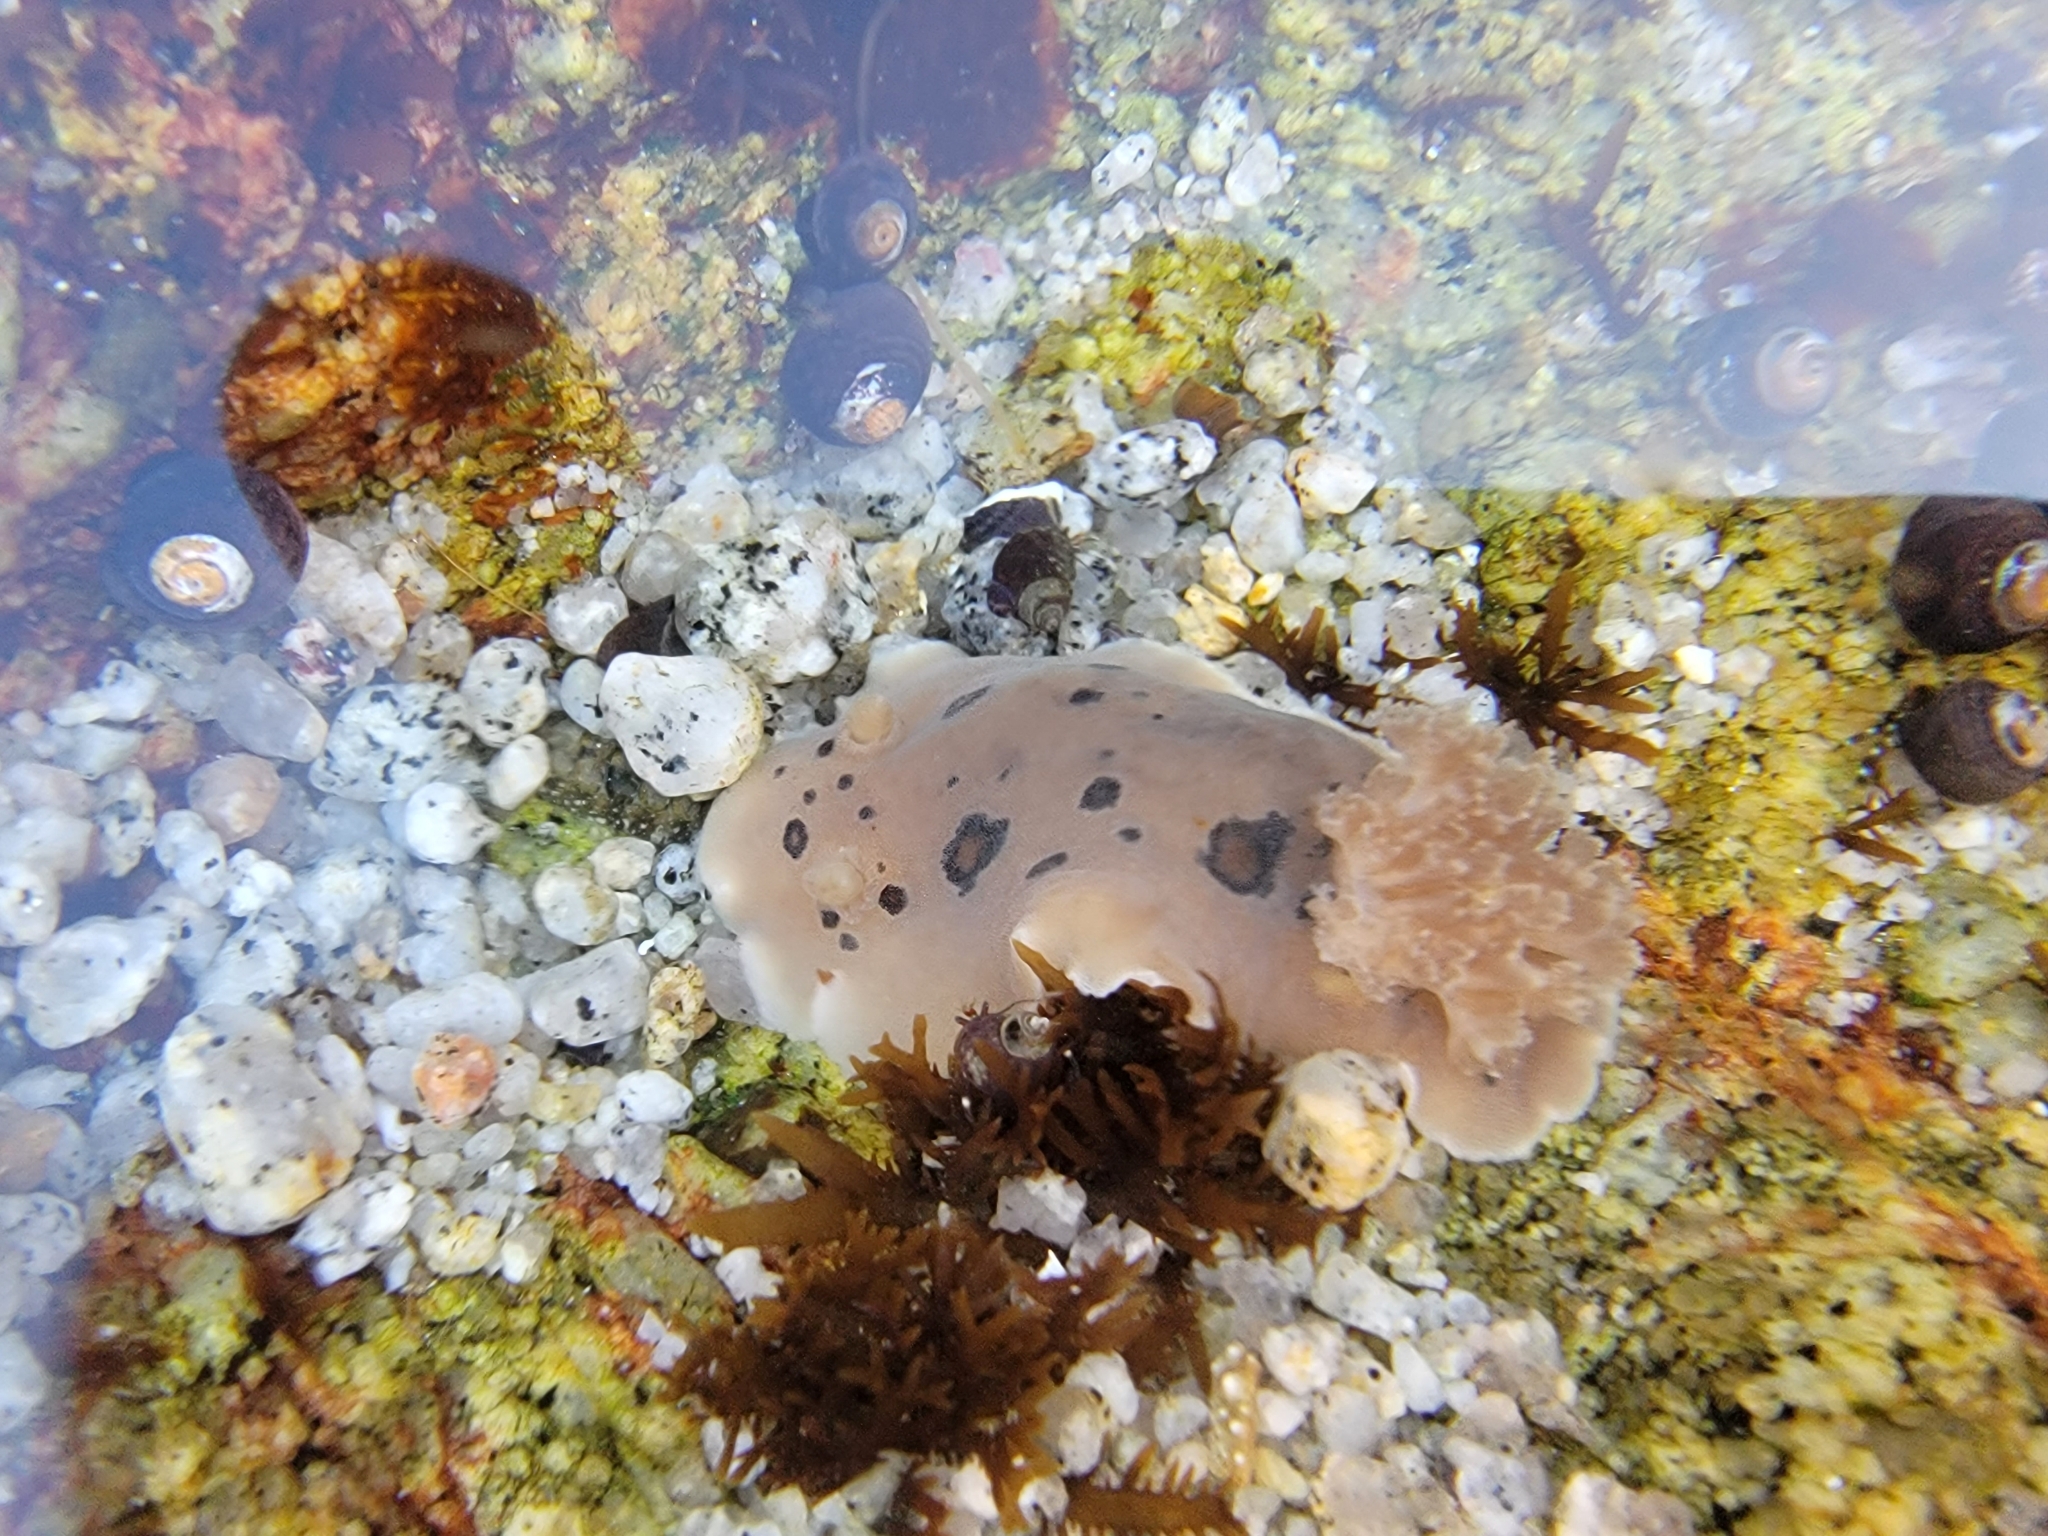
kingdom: Animalia
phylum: Mollusca
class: Gastropoda
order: Nudibranchia
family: Discodorididae
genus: Diaulula
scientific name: Diaulula odonoghuei
